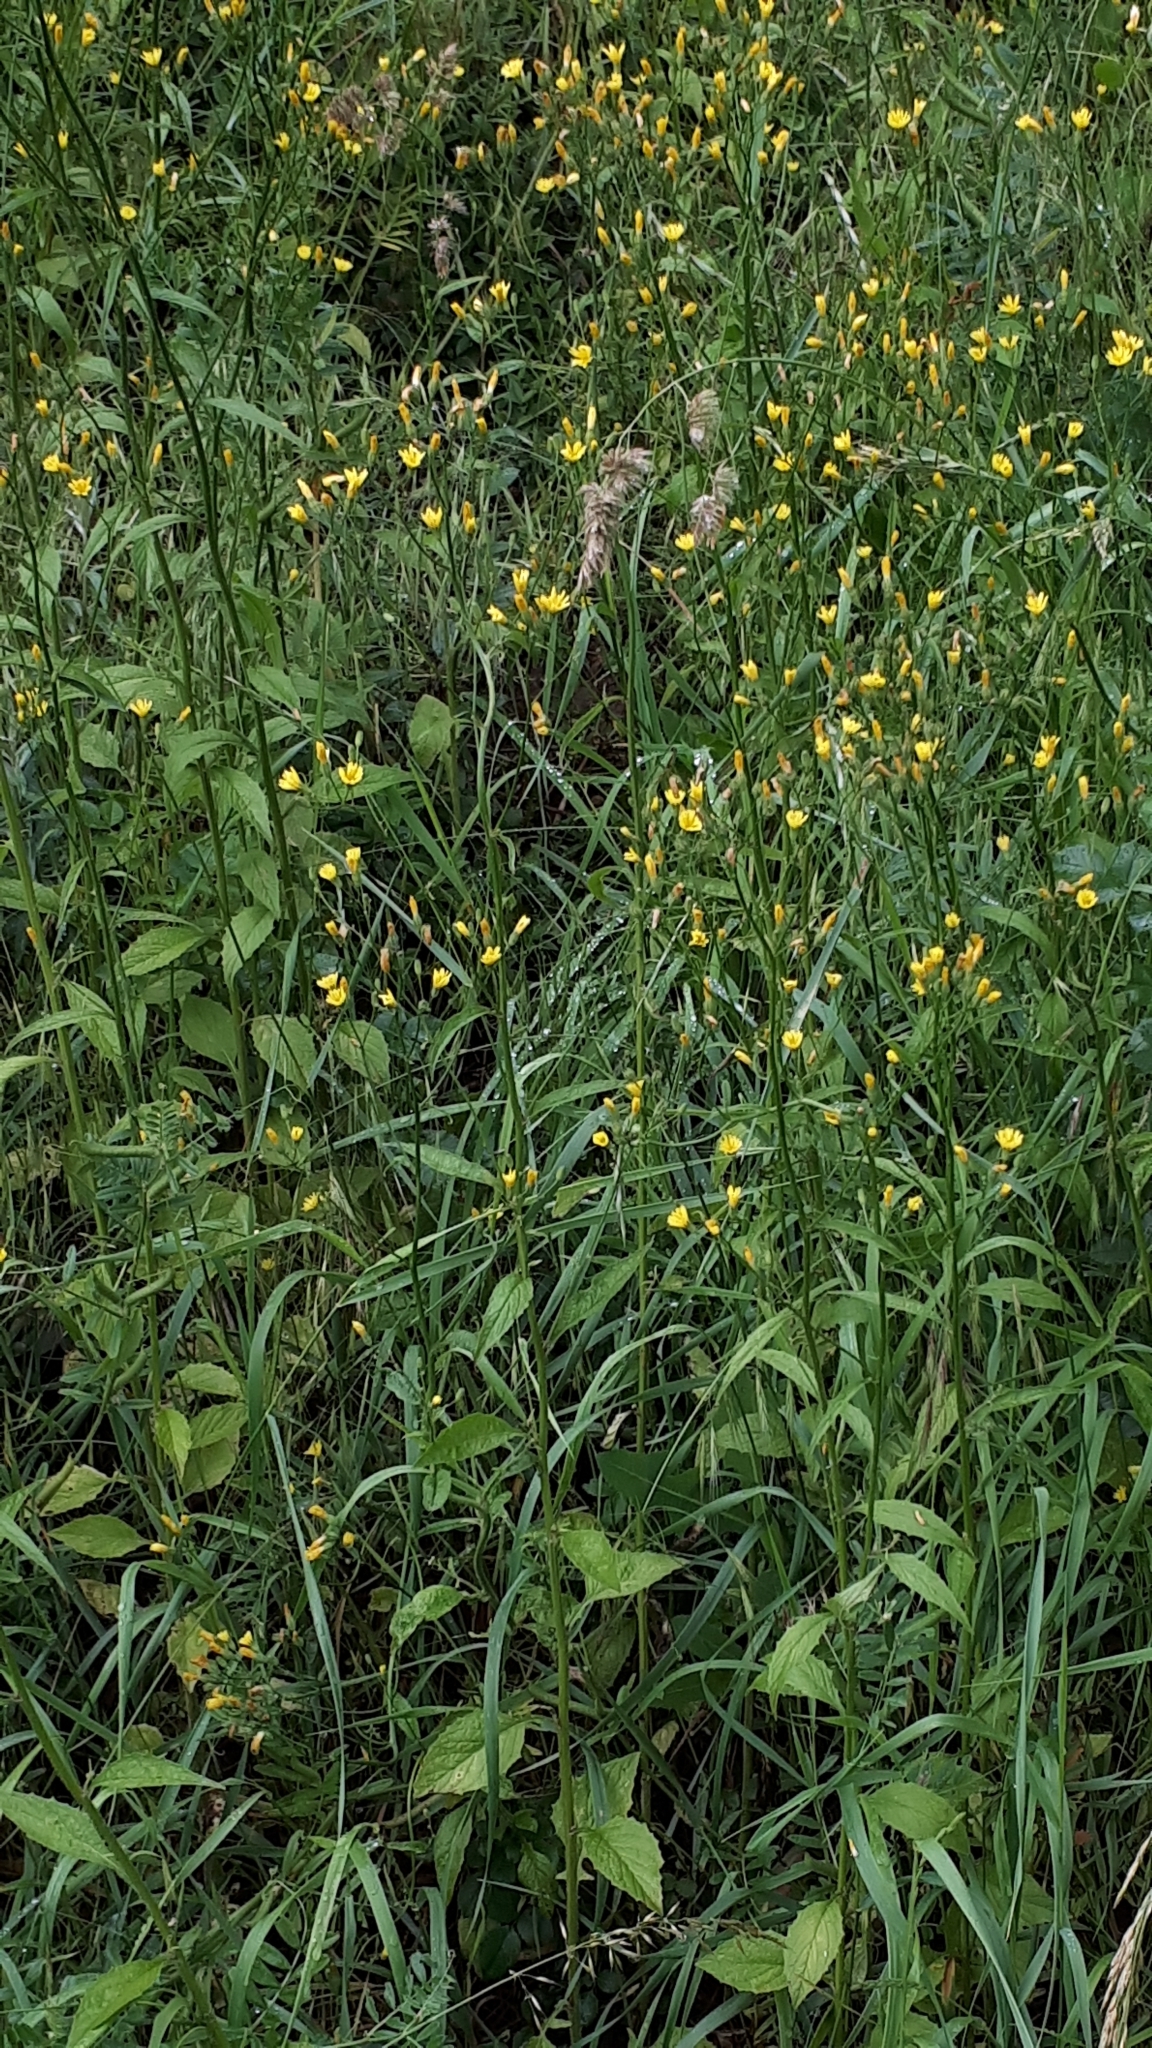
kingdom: Plantae
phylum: Tracheophyta
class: Magnoliopsida
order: Asterales
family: Asteraceae
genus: Lapsana
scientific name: Lapsana communis
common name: Nipplewort
